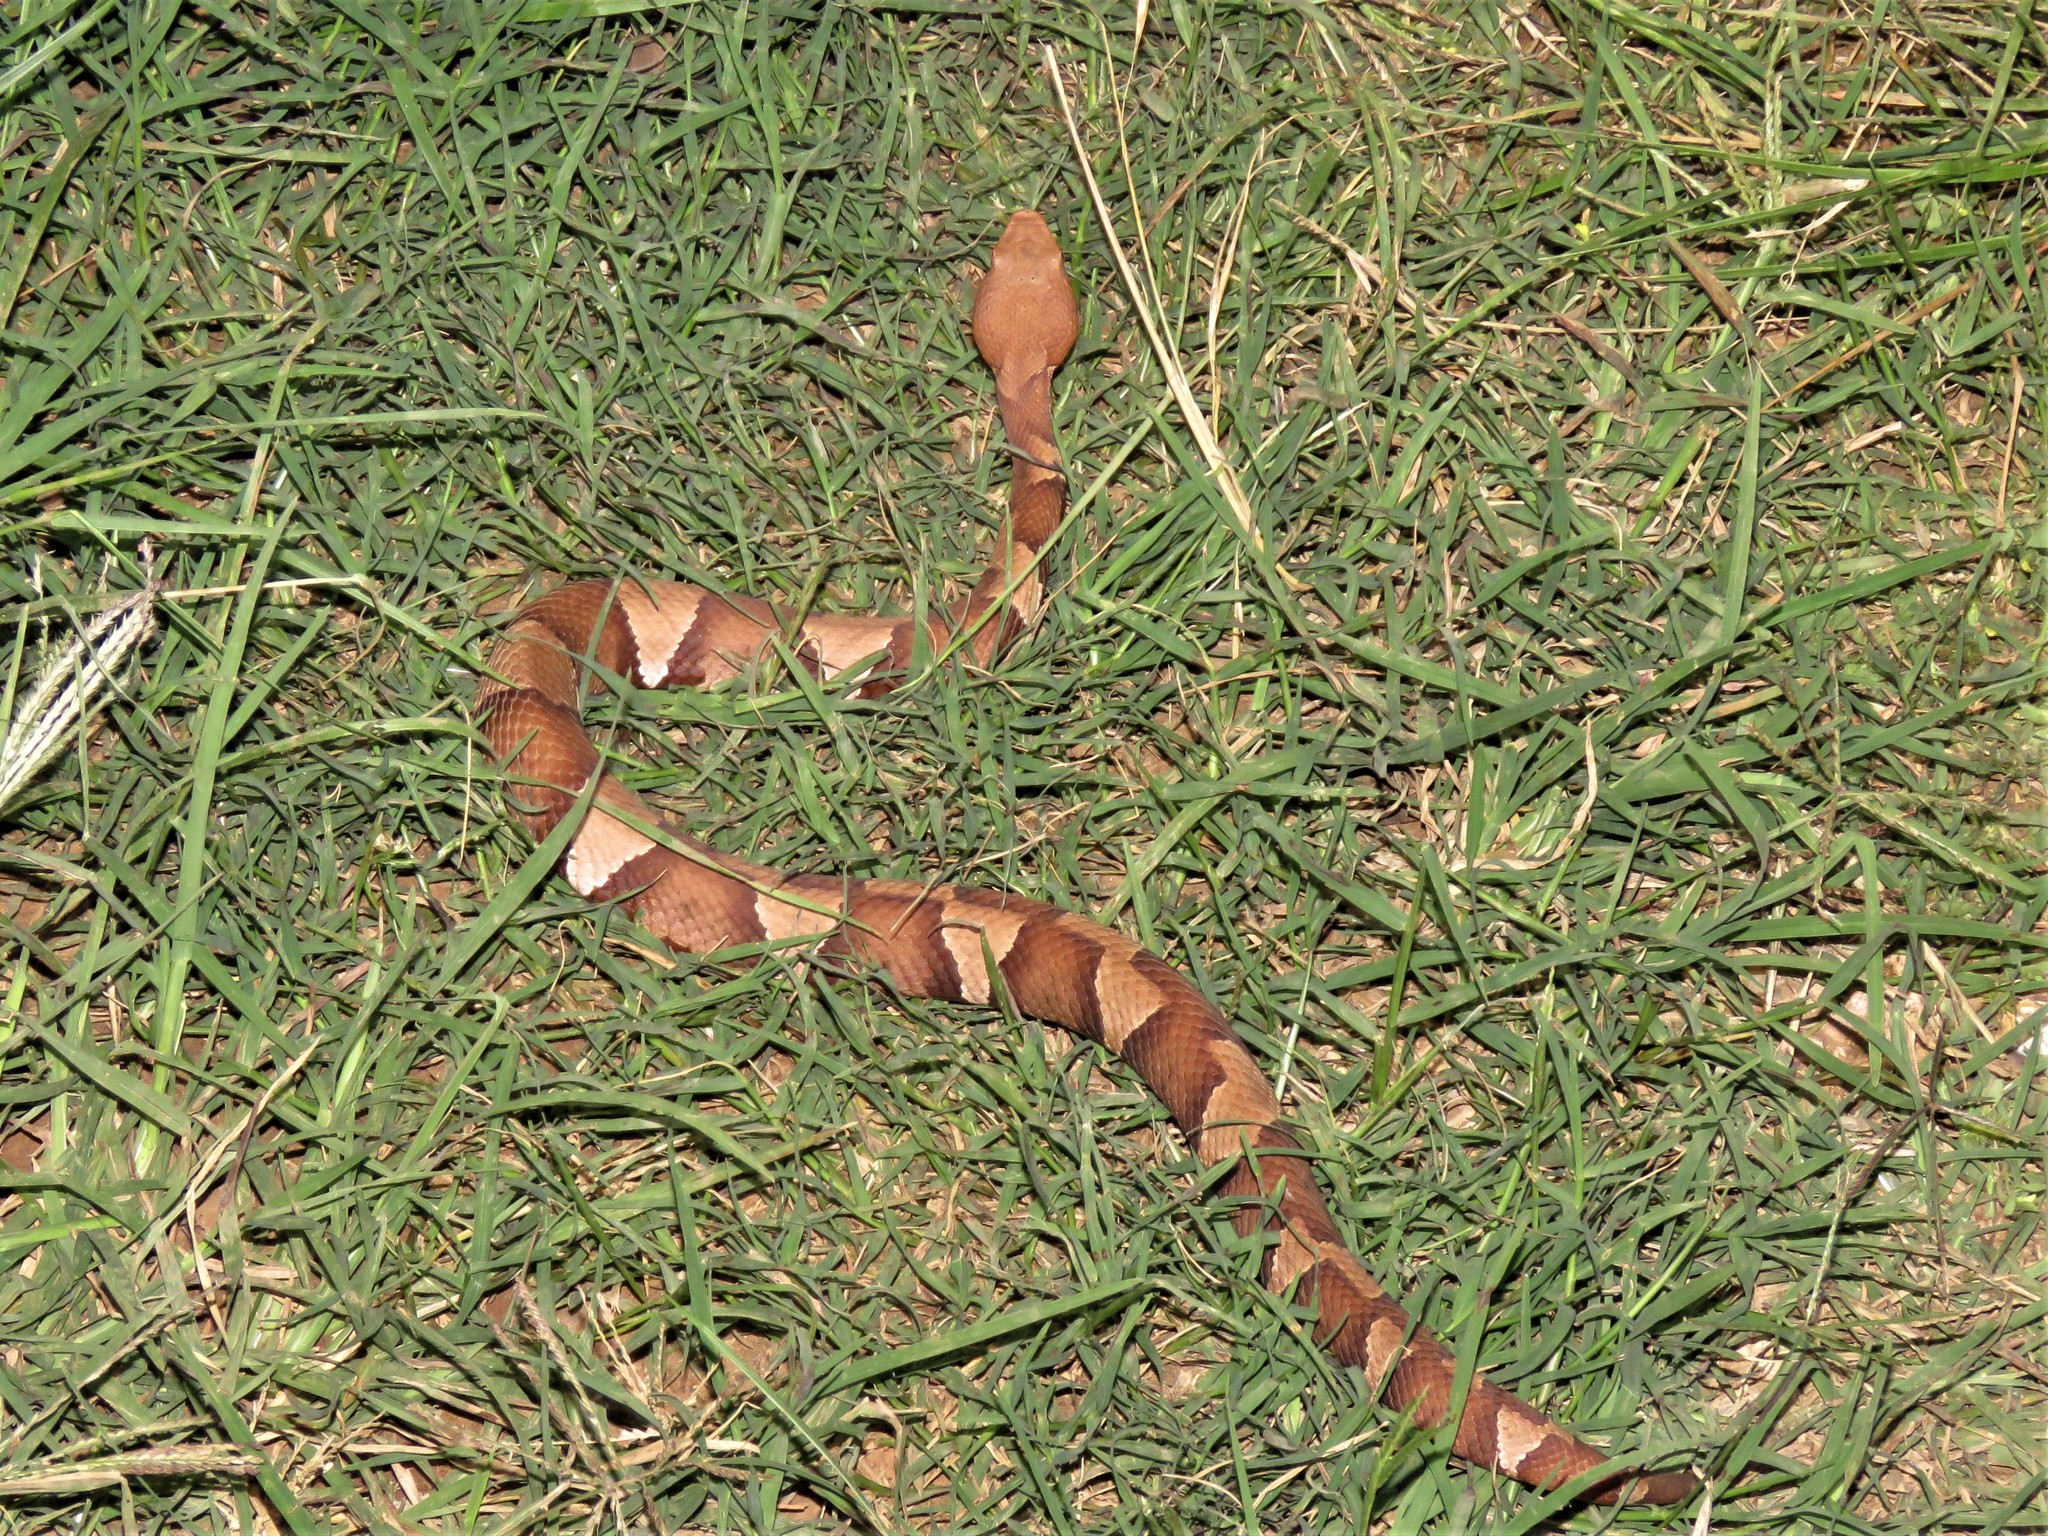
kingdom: Animalia
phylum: Chordata
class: Squamata
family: Viperidae
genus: Agkistrodon
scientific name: Agkistrodon laticinctus
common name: Broad-banded copperhead
